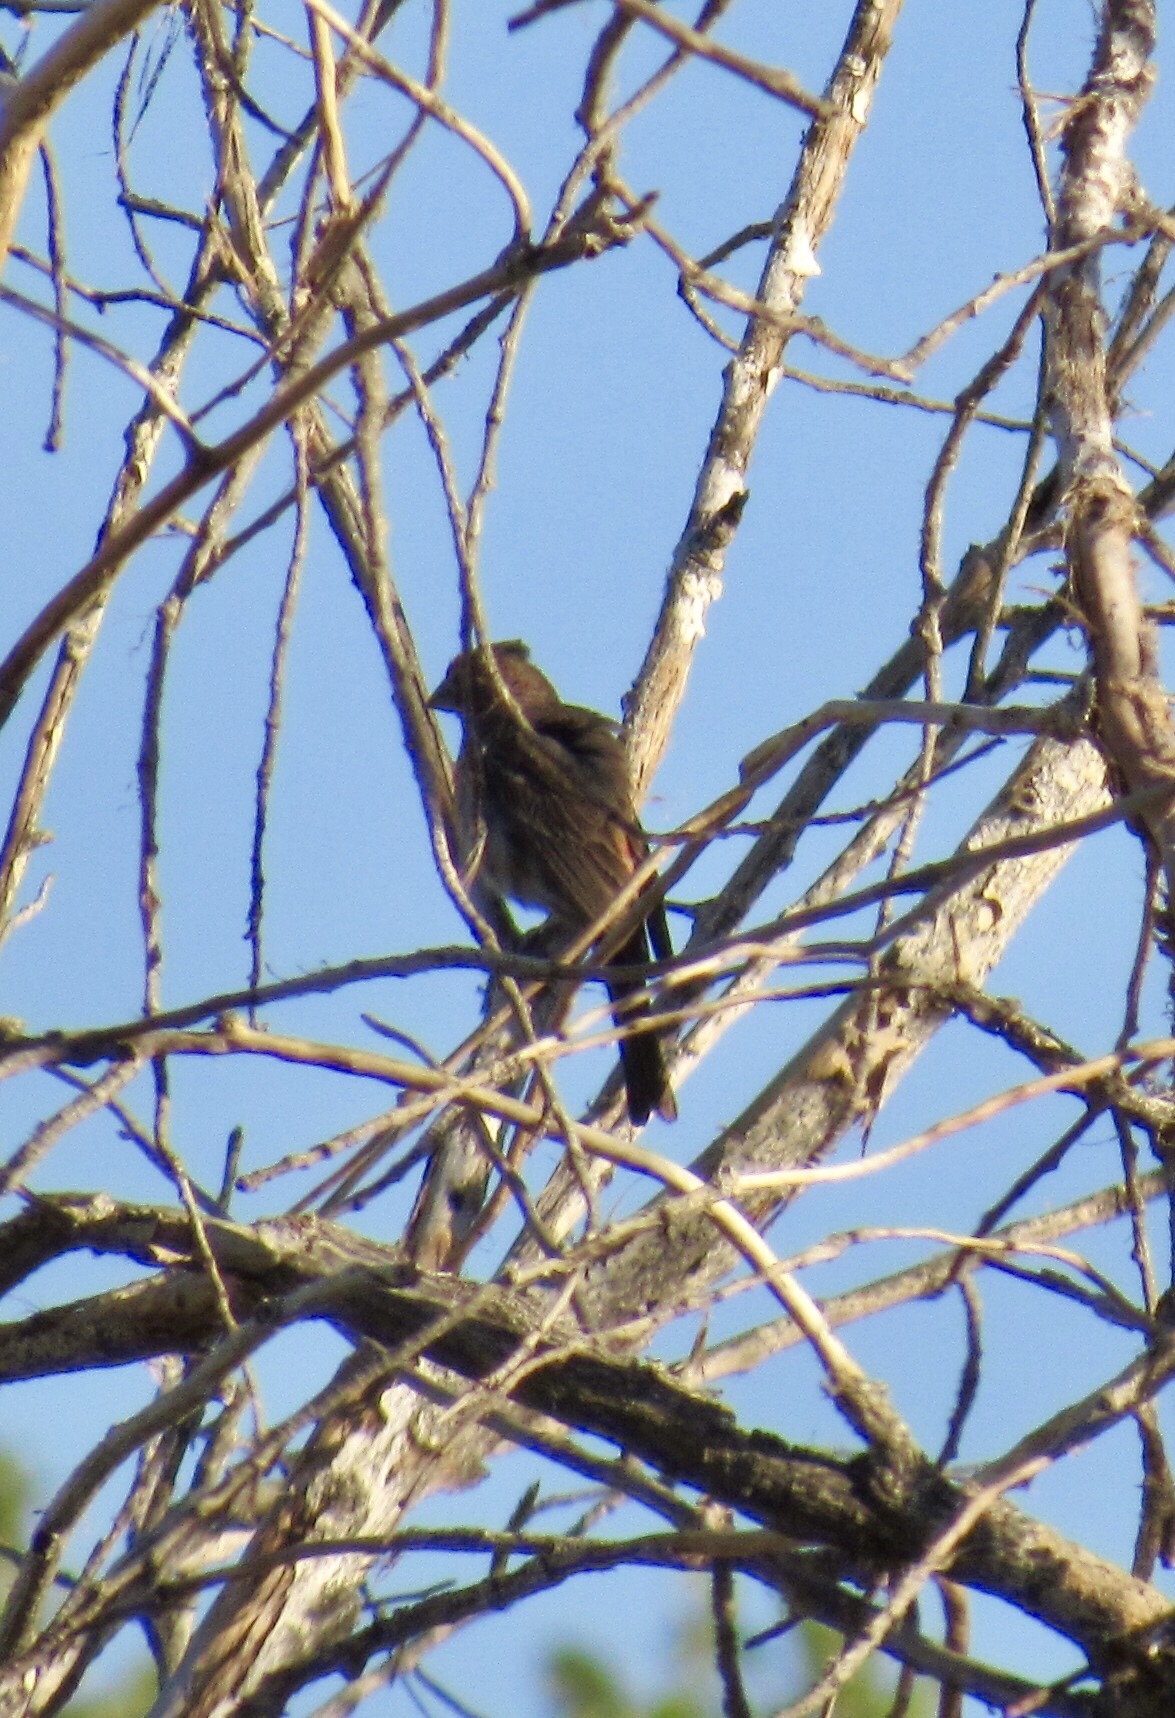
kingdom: Animalia
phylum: Chordata
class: Aves
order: Passeriformes
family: Passerellidae
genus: Melozone
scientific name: Melozone aberti
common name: Abert's towhee
